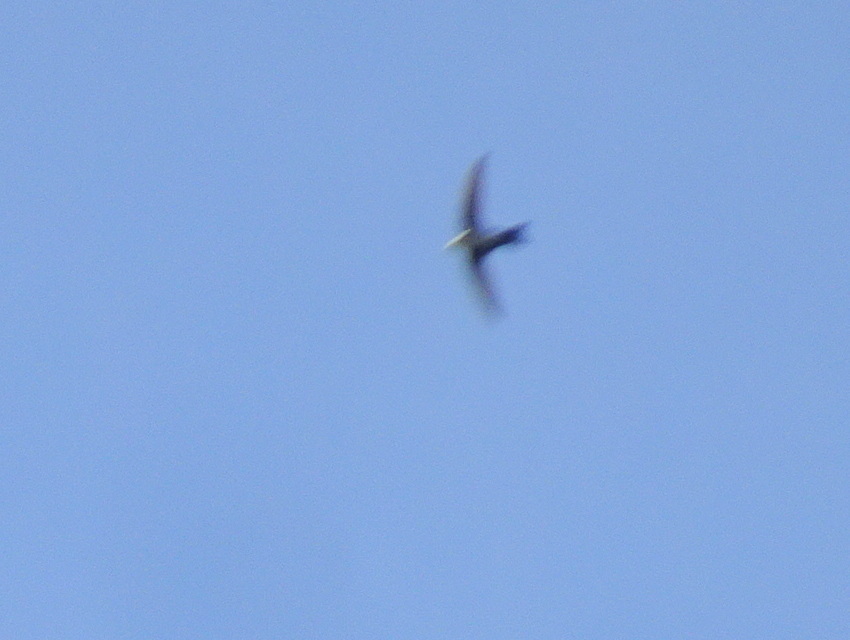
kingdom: Animalia
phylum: Chordata
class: Aves
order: Apodiformes
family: Apodidae
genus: Aeronautes
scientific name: Aeronautes saxatalis
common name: White-throated swift
